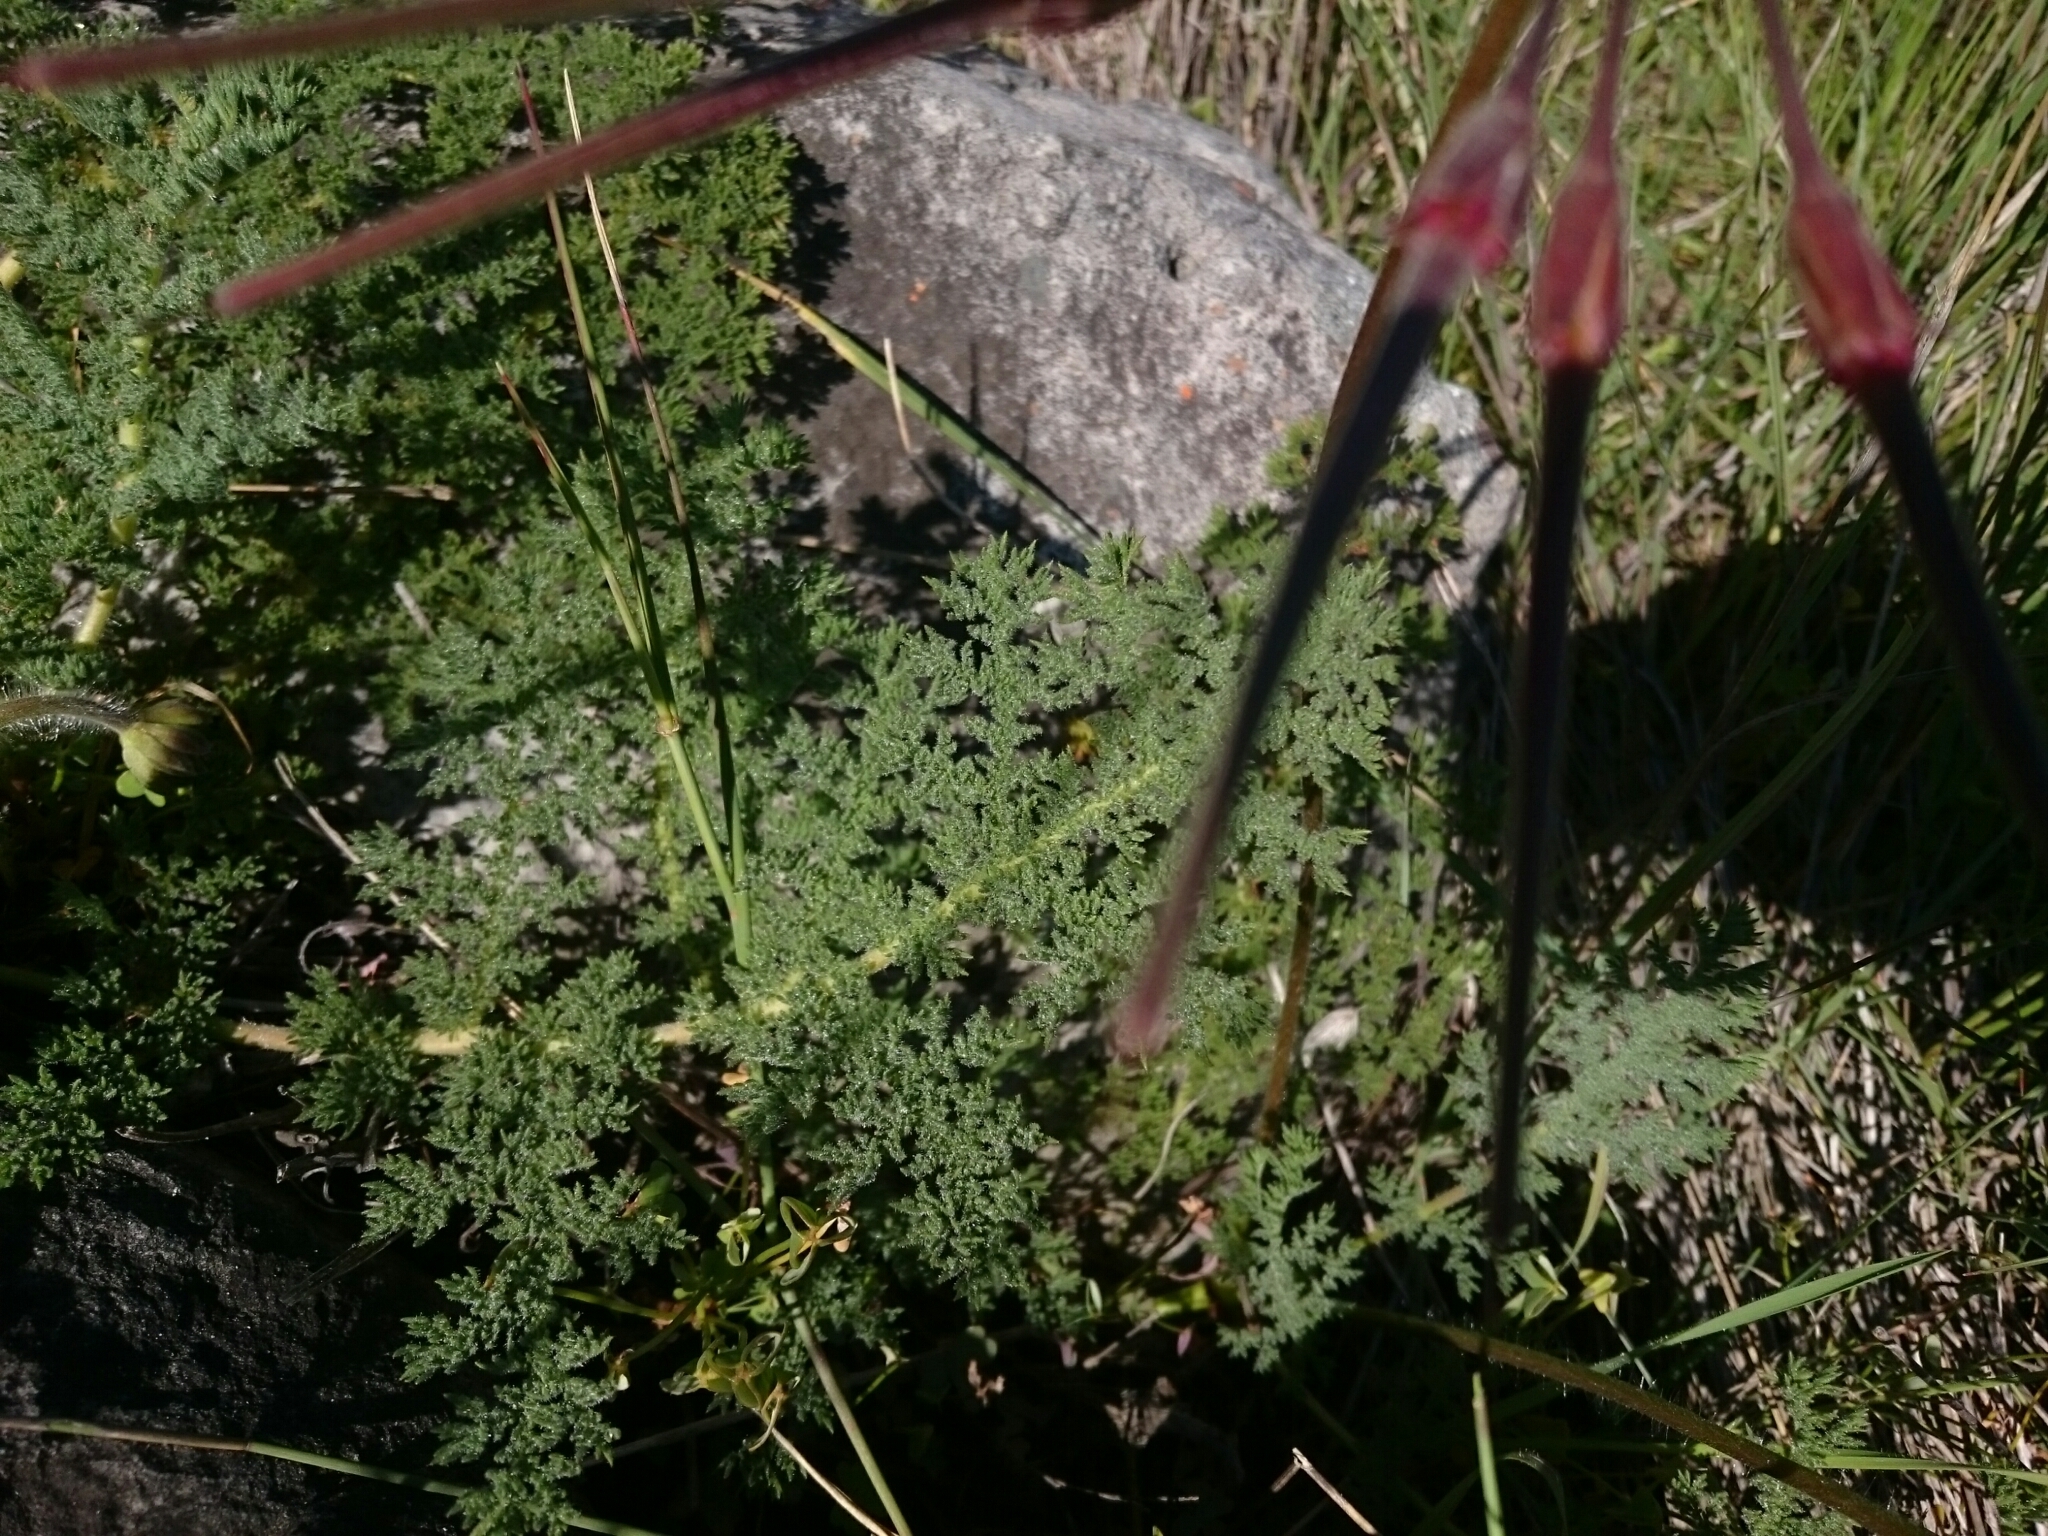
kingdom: Plantae
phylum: Tracheophyta
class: Magnoliopsida
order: Geraniales
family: Geraniaceae
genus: Pelargonium
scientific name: Pelargonium triste
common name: Night-scent pelargonium
